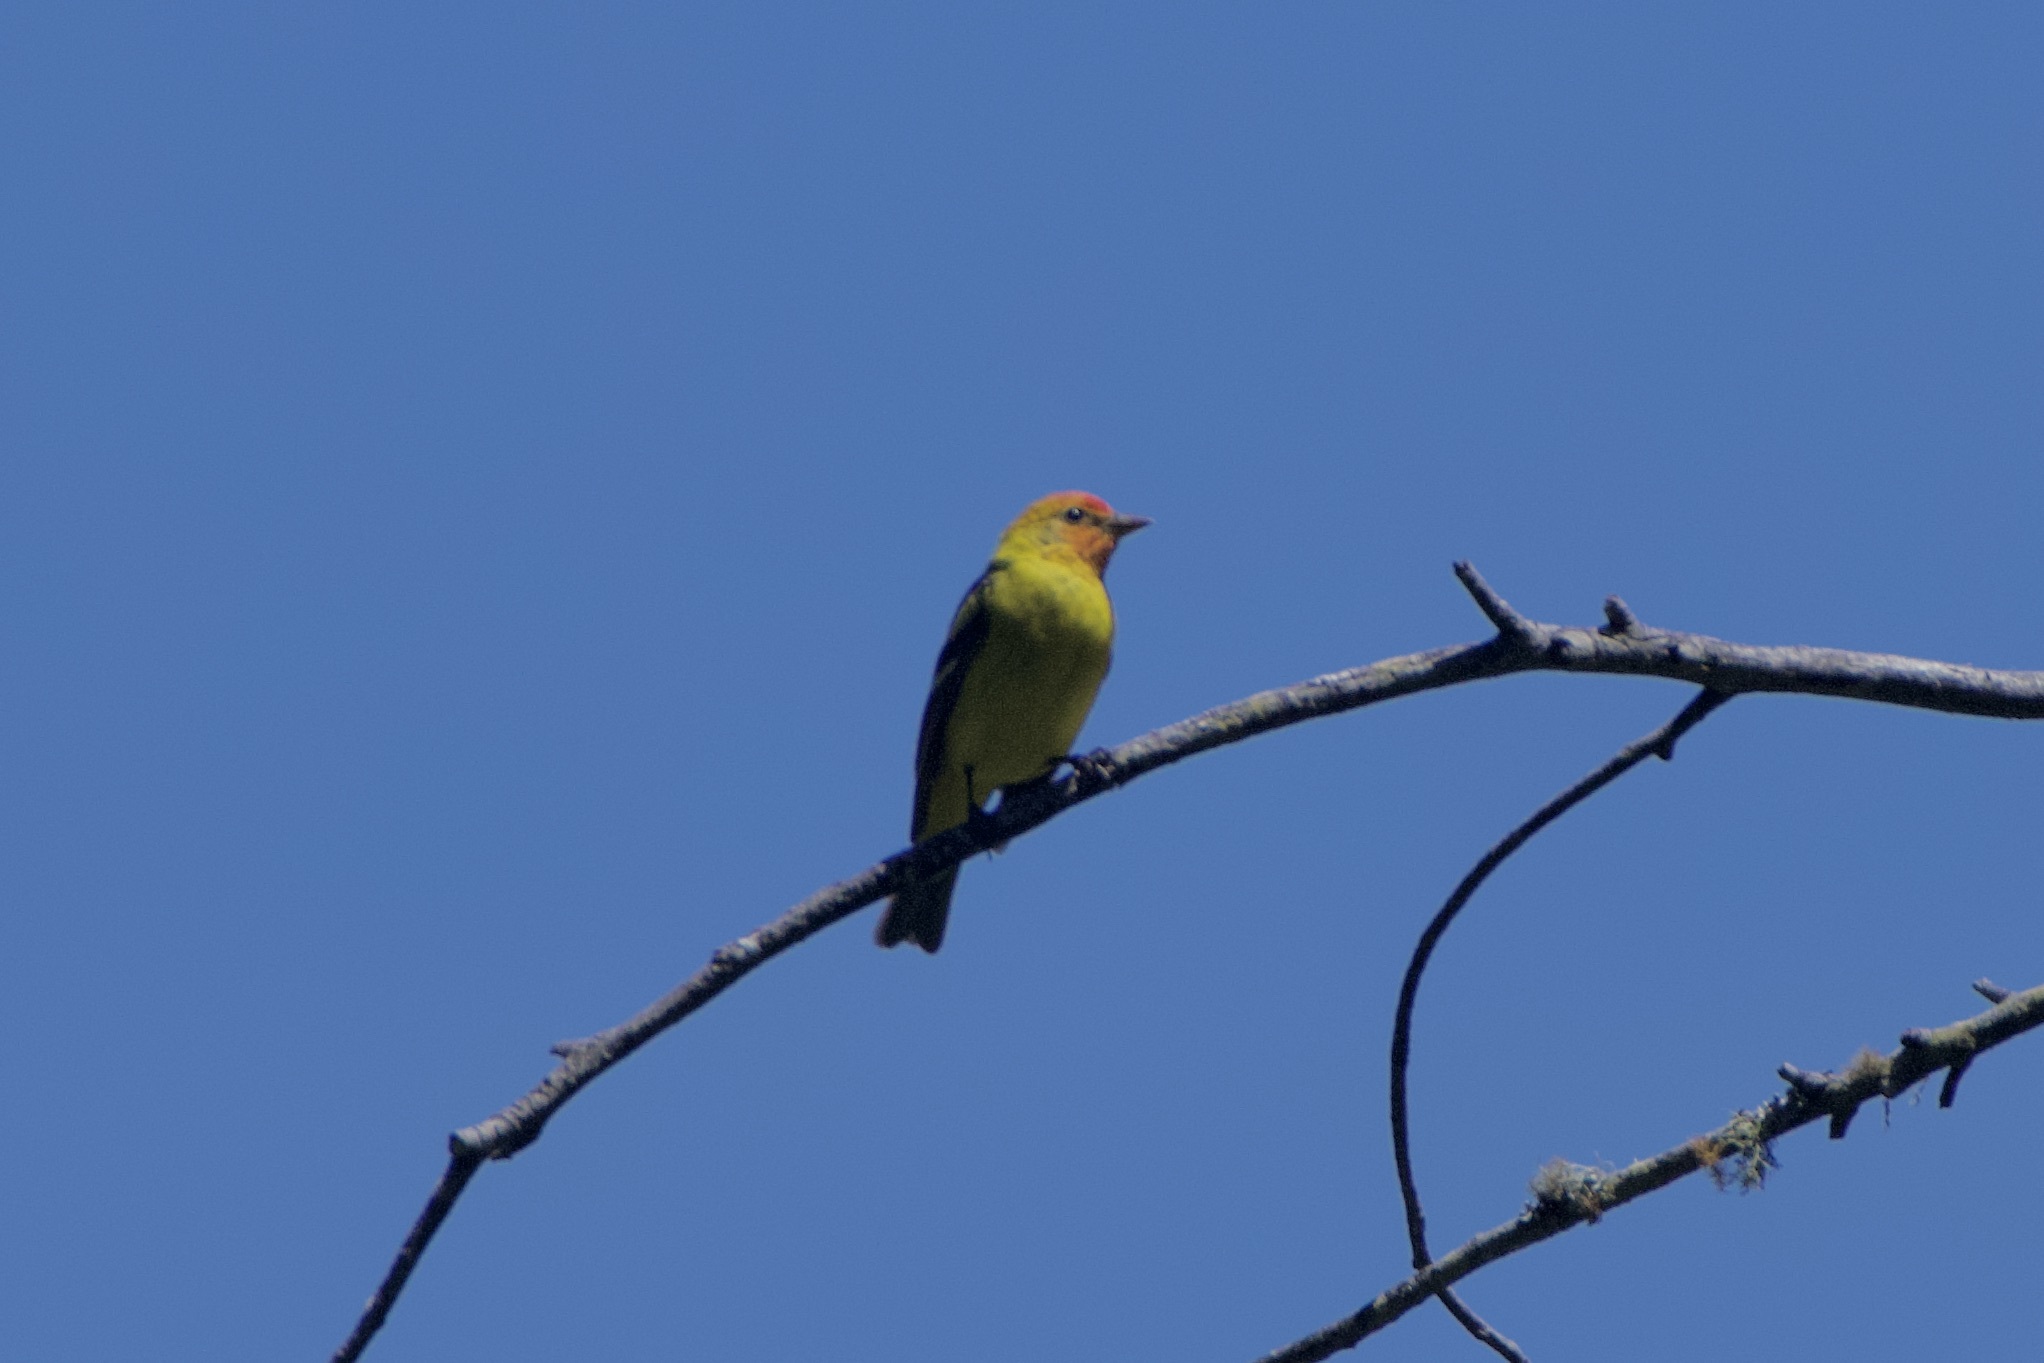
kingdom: Animalia
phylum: Chordata
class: Aves
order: Passeriformes
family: Cardinalidae
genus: Piranga
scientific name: Piranga ludoviciana
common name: Western tanager
